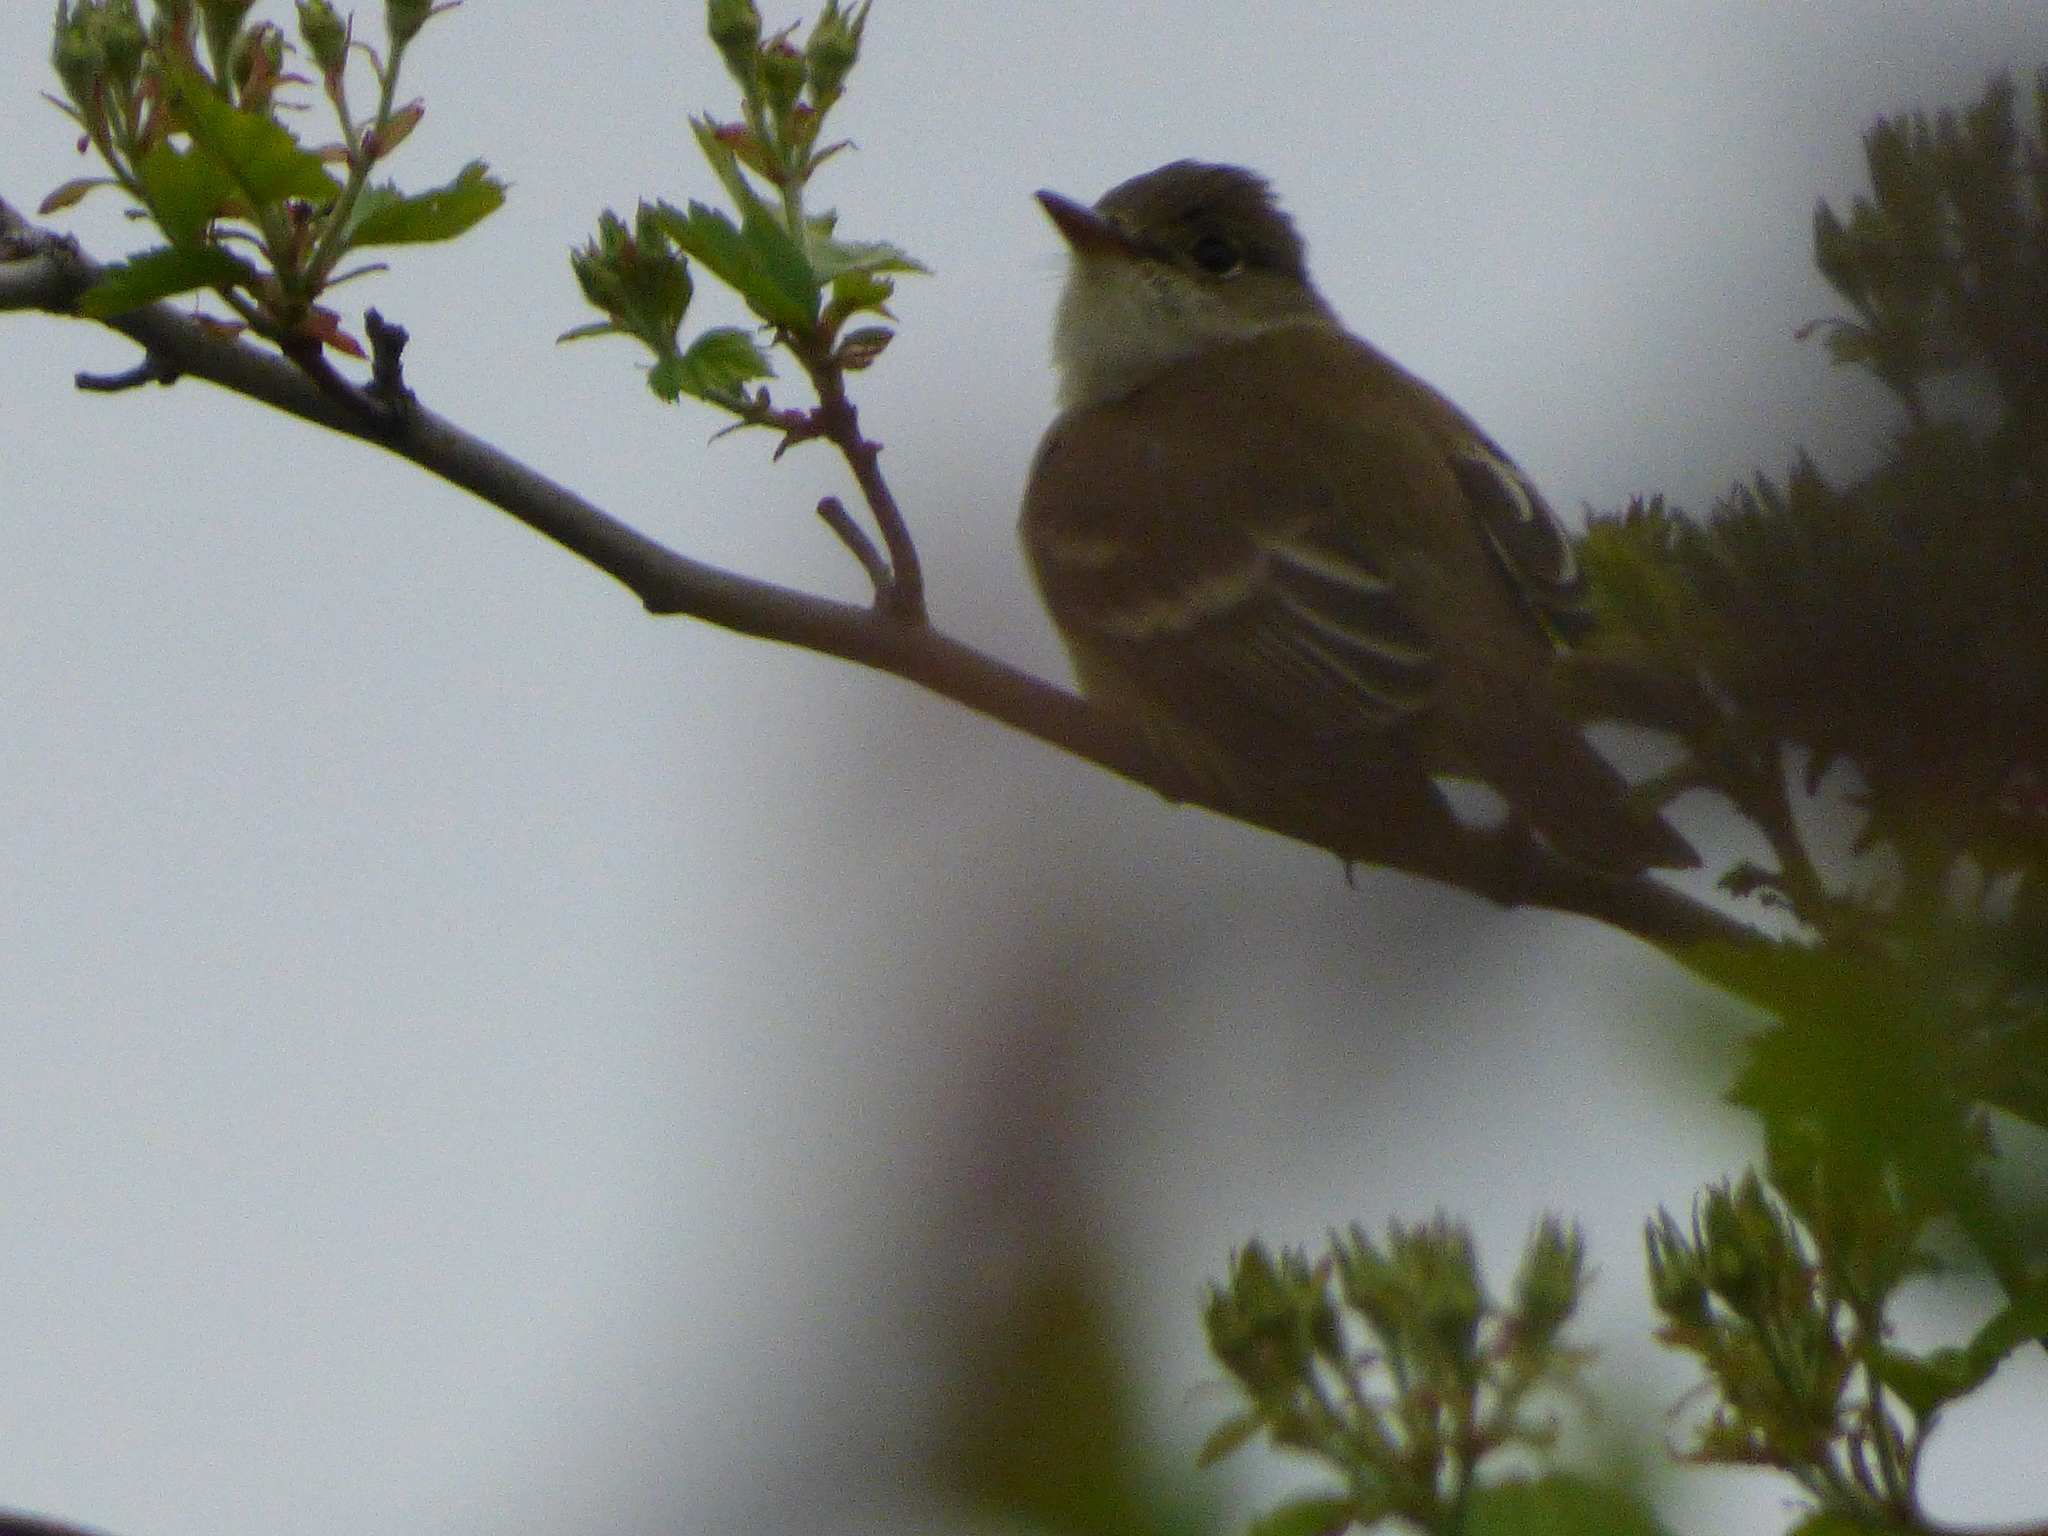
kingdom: Animalia
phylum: Chordata
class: Aves
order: Passeriformes
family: Tyrannidae
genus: Empidonax
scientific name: Empidonax traillii
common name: Willow flycatcher
